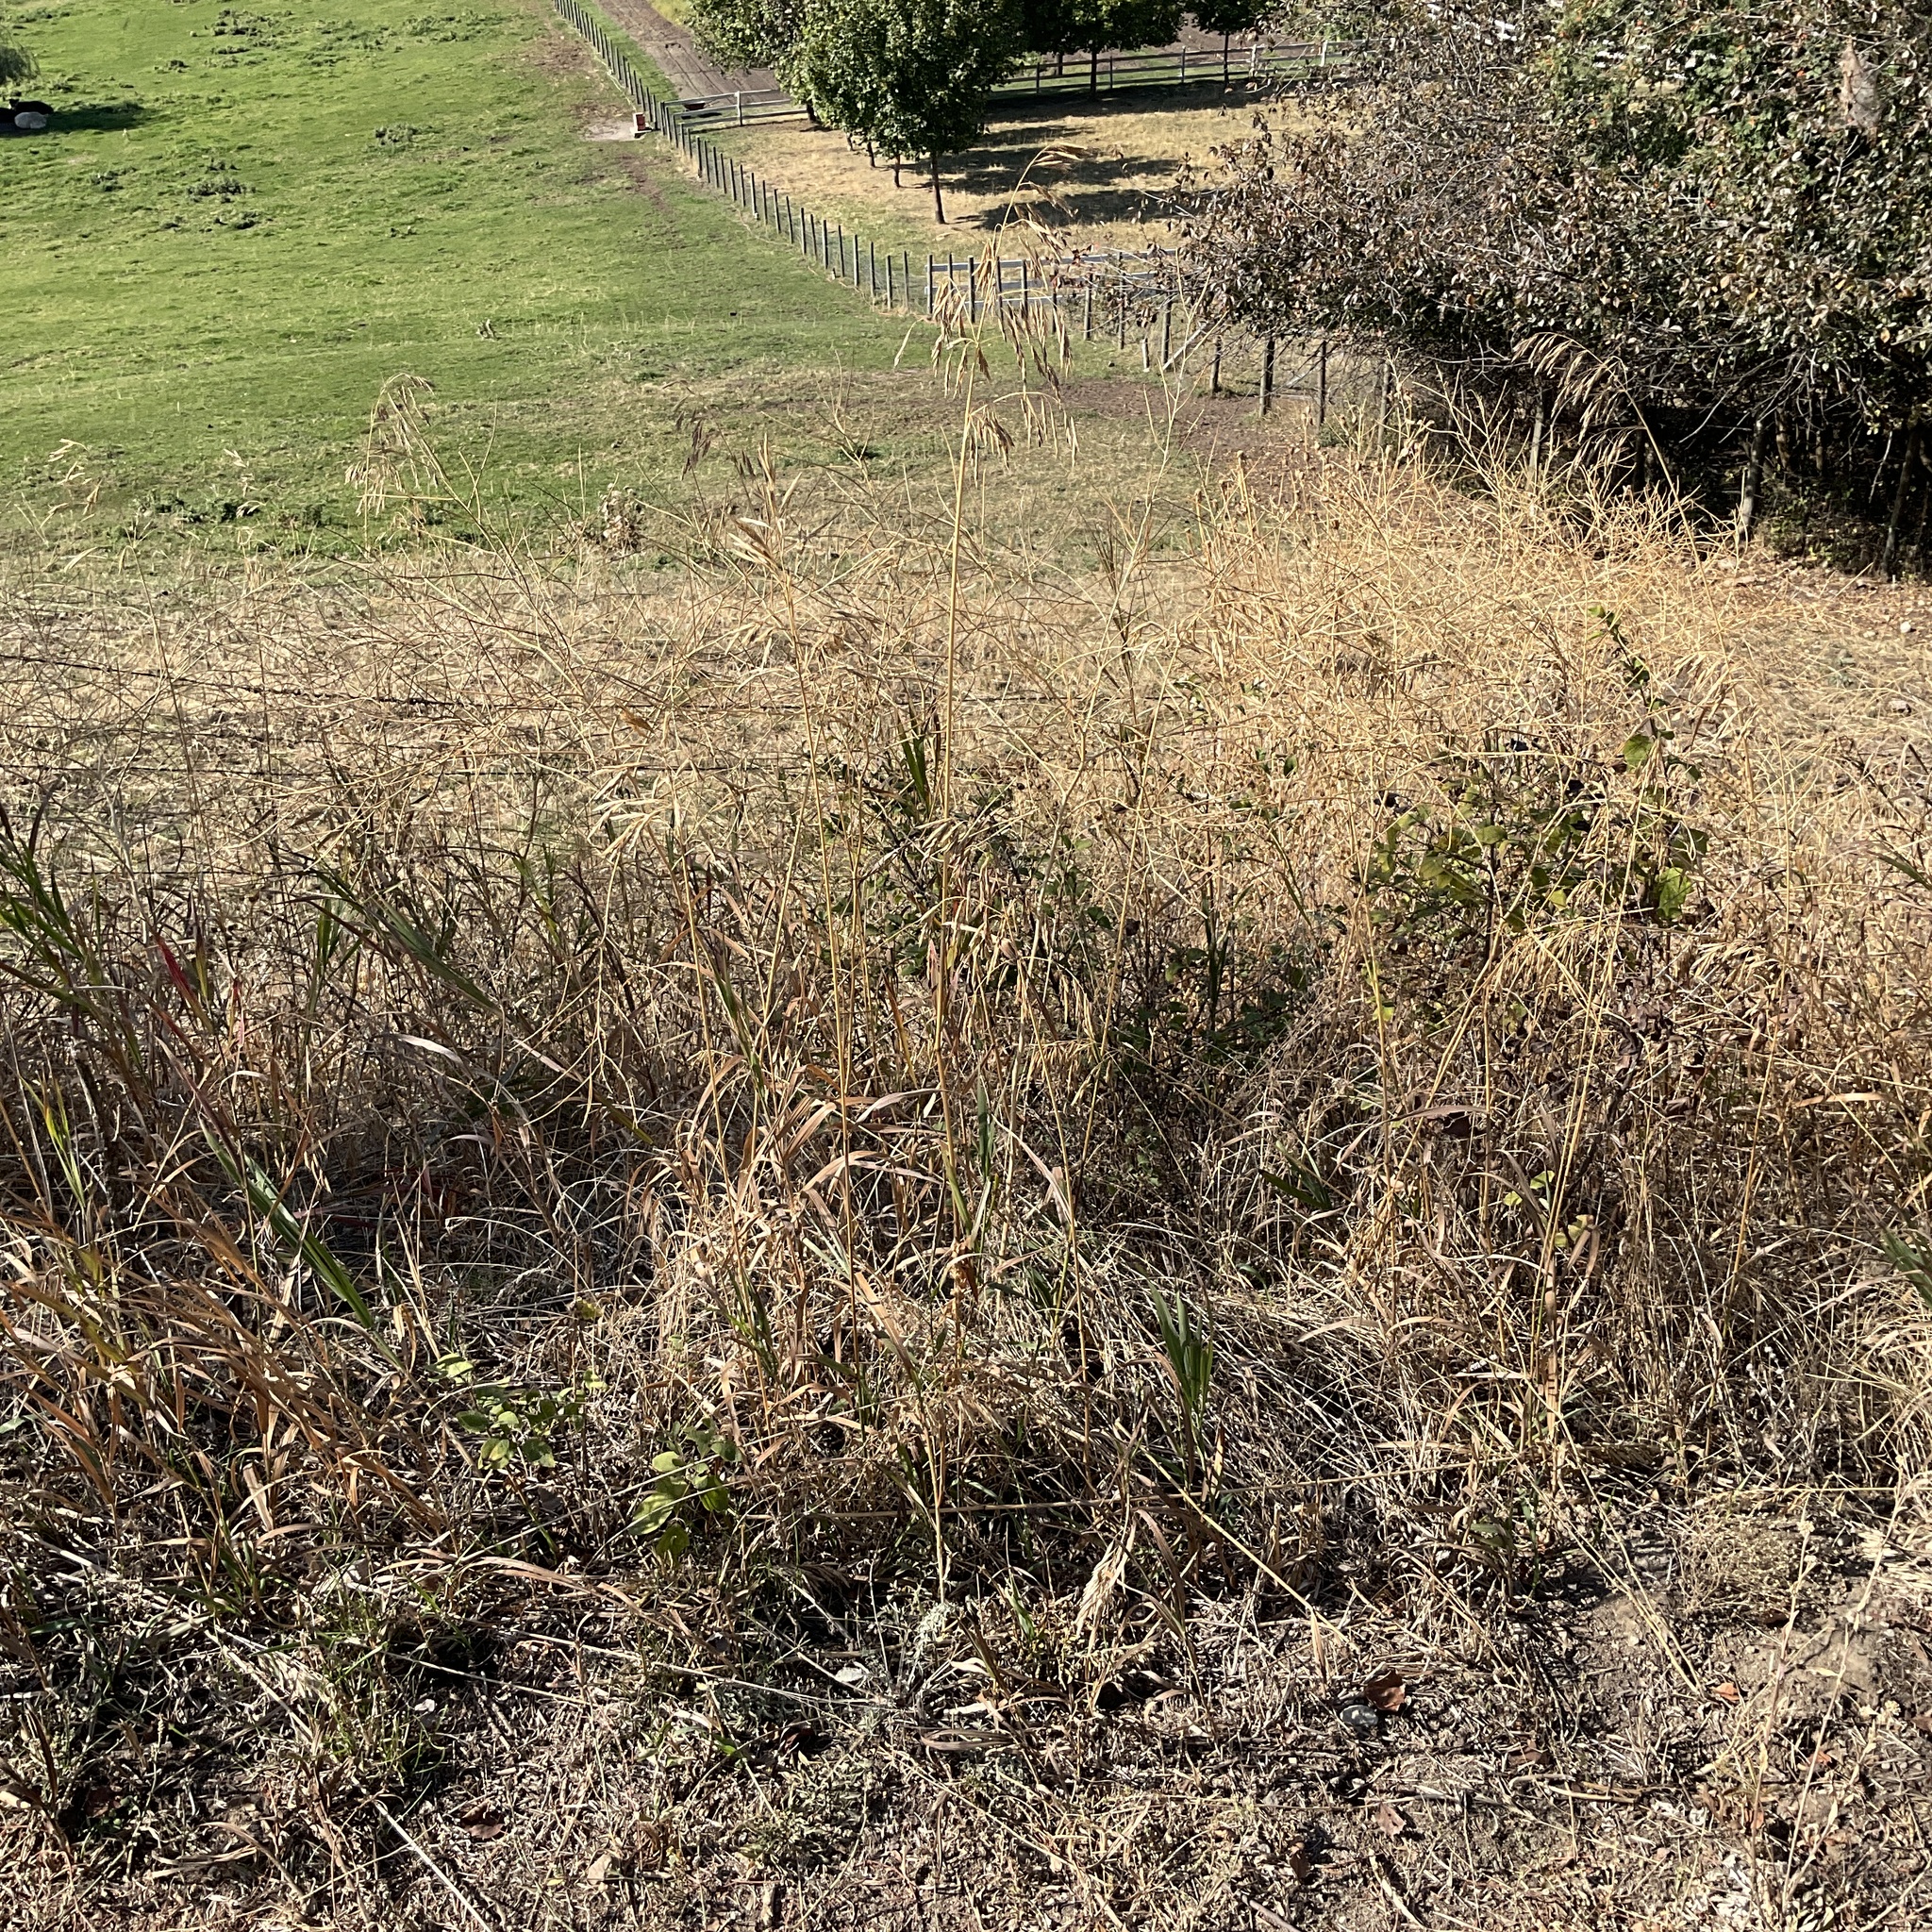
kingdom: Plantae
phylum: Tracheophyta
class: Liliopsida
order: Poales
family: Poaceae
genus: Bromus
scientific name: Bromus inermis
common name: Smooth brome
